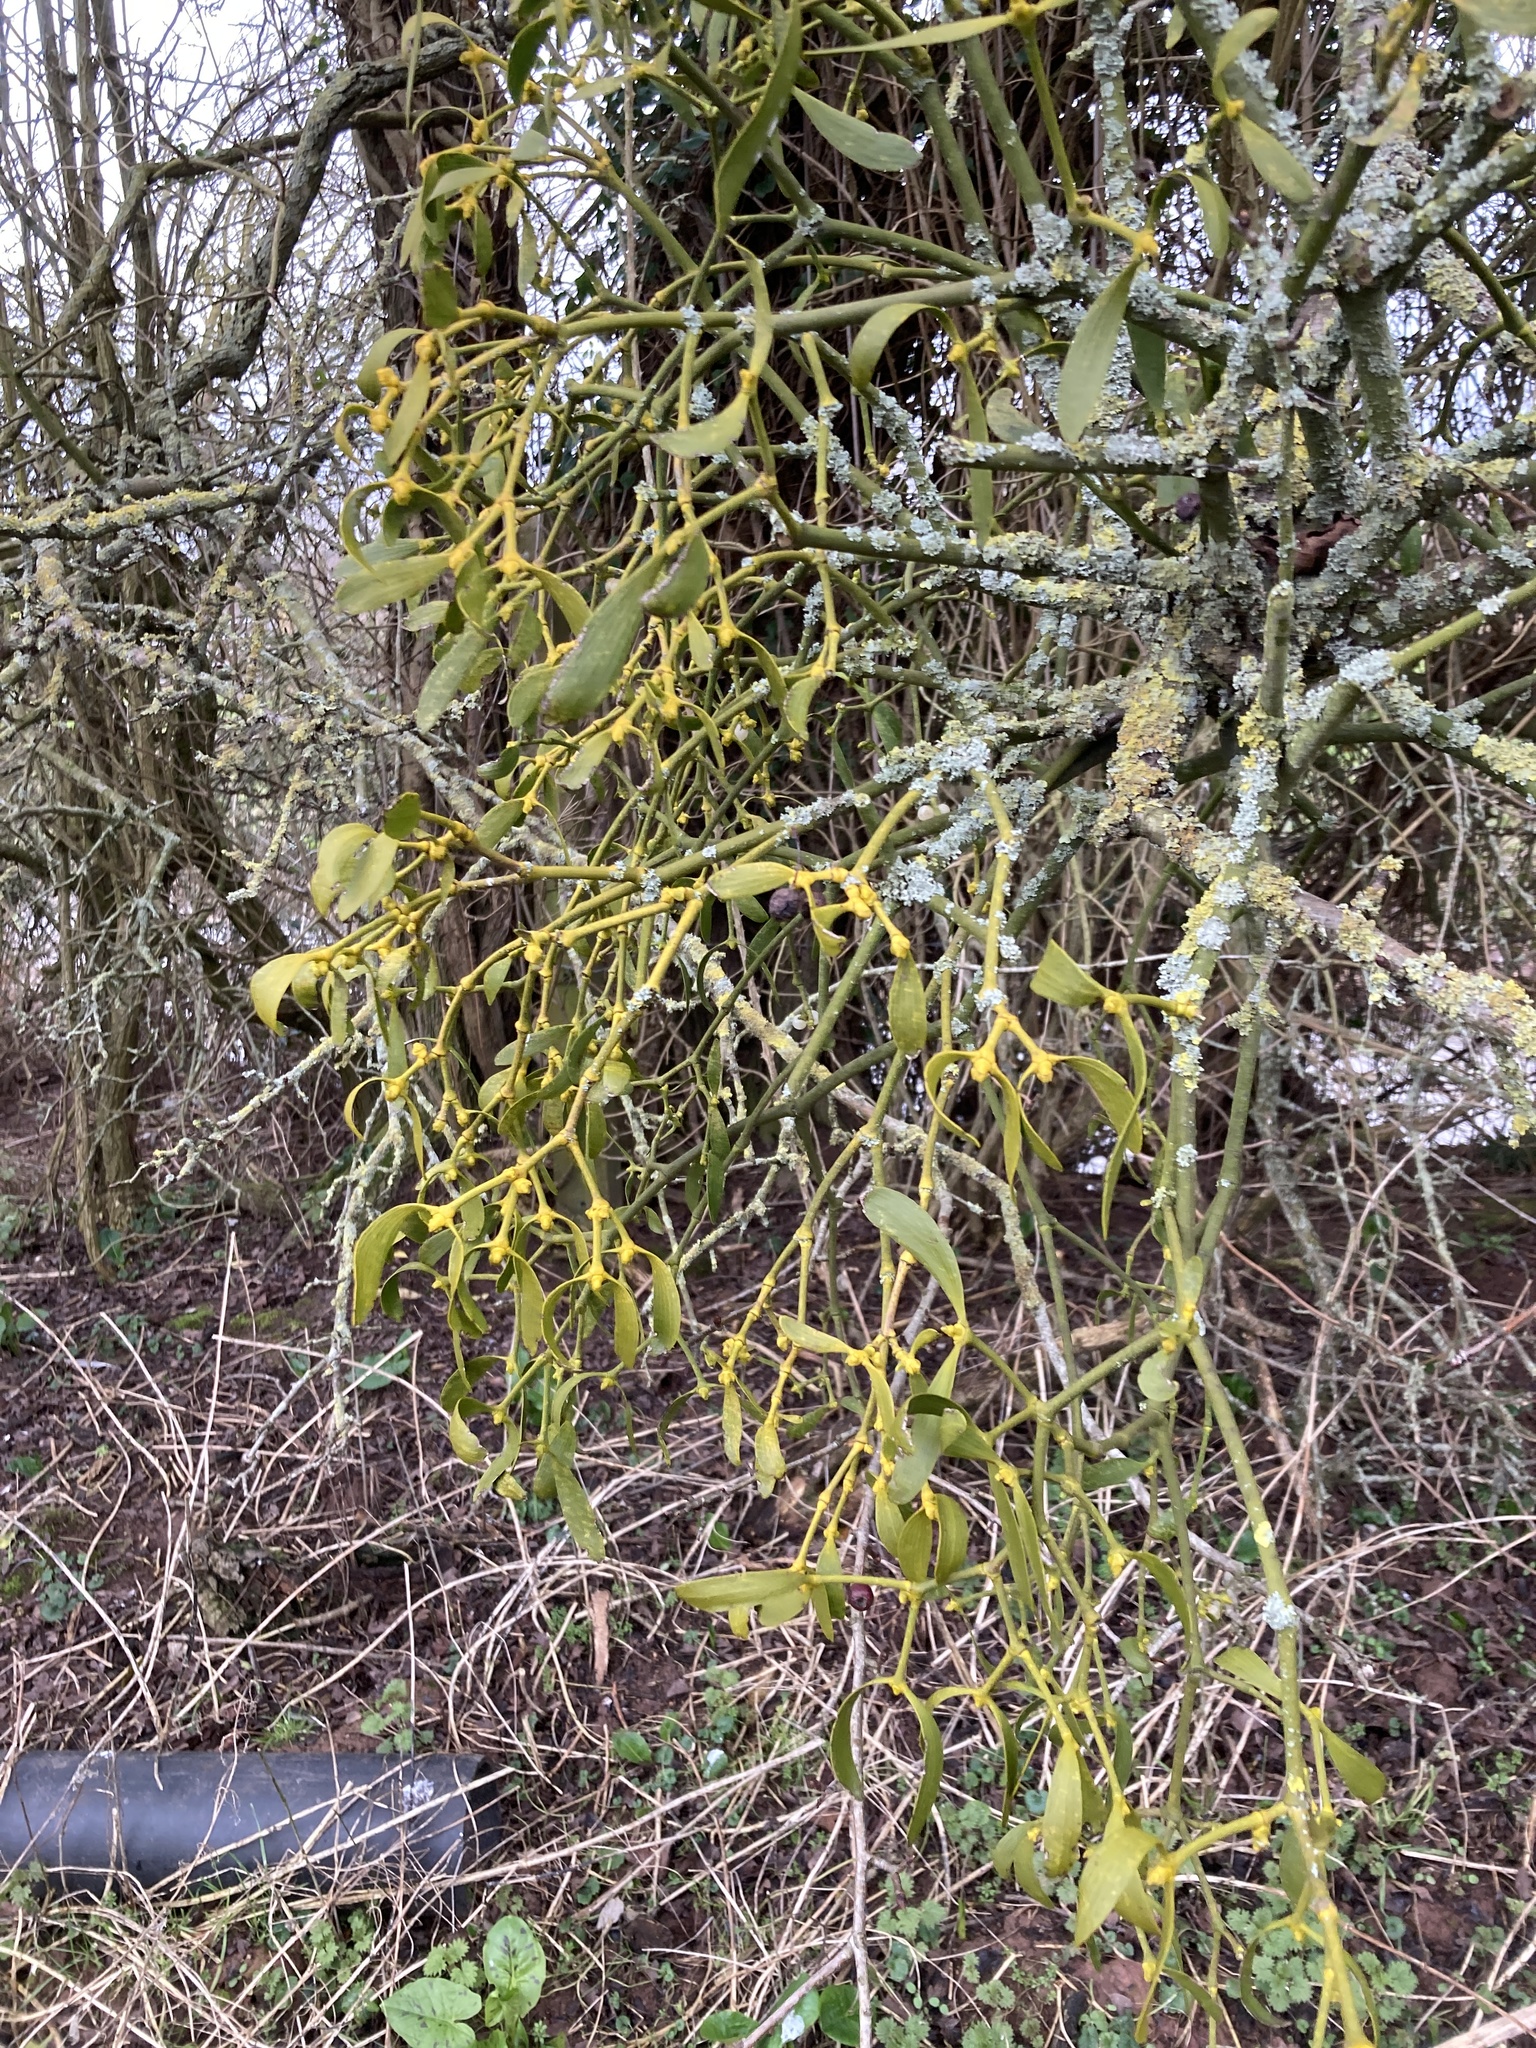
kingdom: Plantae
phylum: Tracheophyta
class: Magnoliopsida
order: Santalales
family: Viscaceae
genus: Viscum
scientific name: Viscum album
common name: Mistletoe
